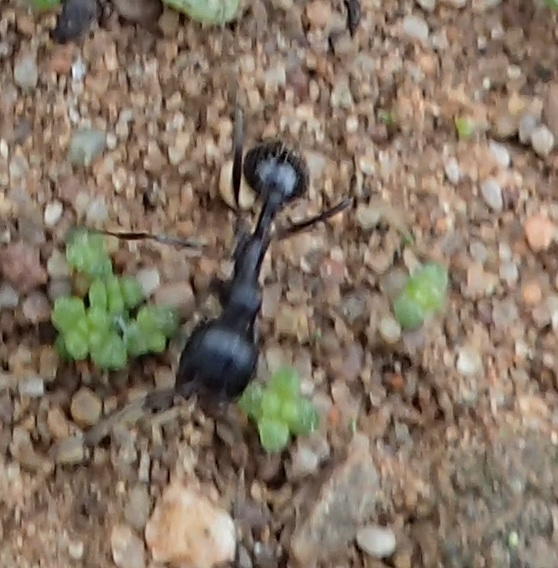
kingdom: Animalia
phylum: Arthropoda
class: Insecta
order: Hymenoptera
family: Formicidae
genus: Messor
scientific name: Messor capensis
